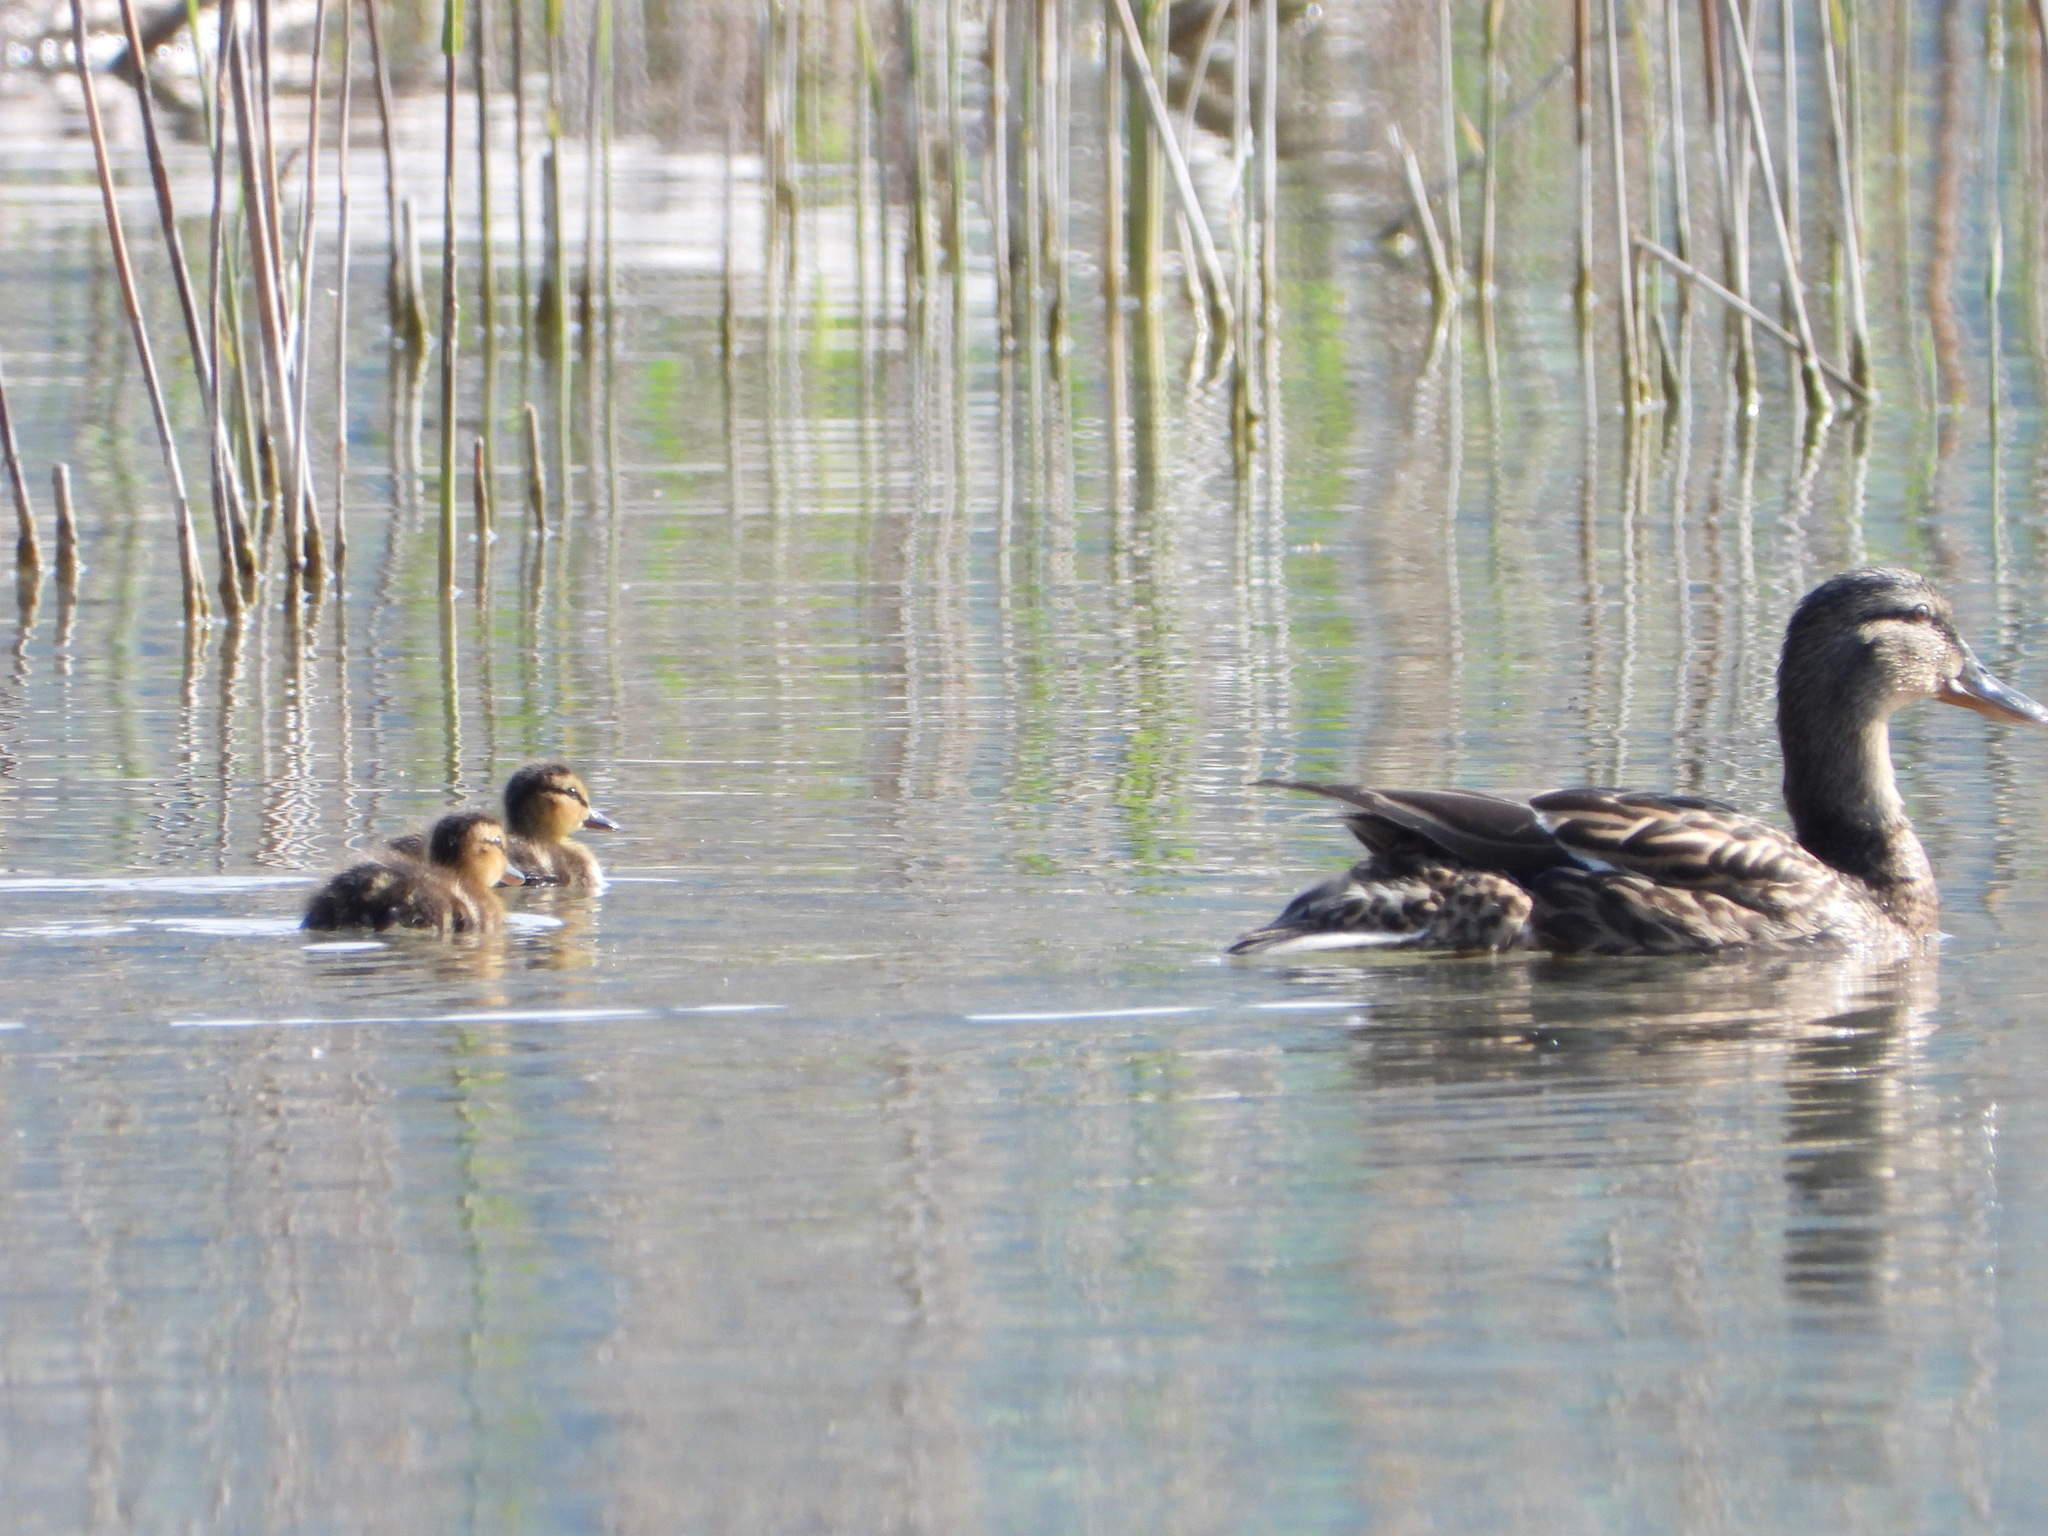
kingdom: Animalia
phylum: Chordata
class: Aves
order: Anseriformes
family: Anatidae
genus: Anas
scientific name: Anas platyrhynchos
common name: Mallard
